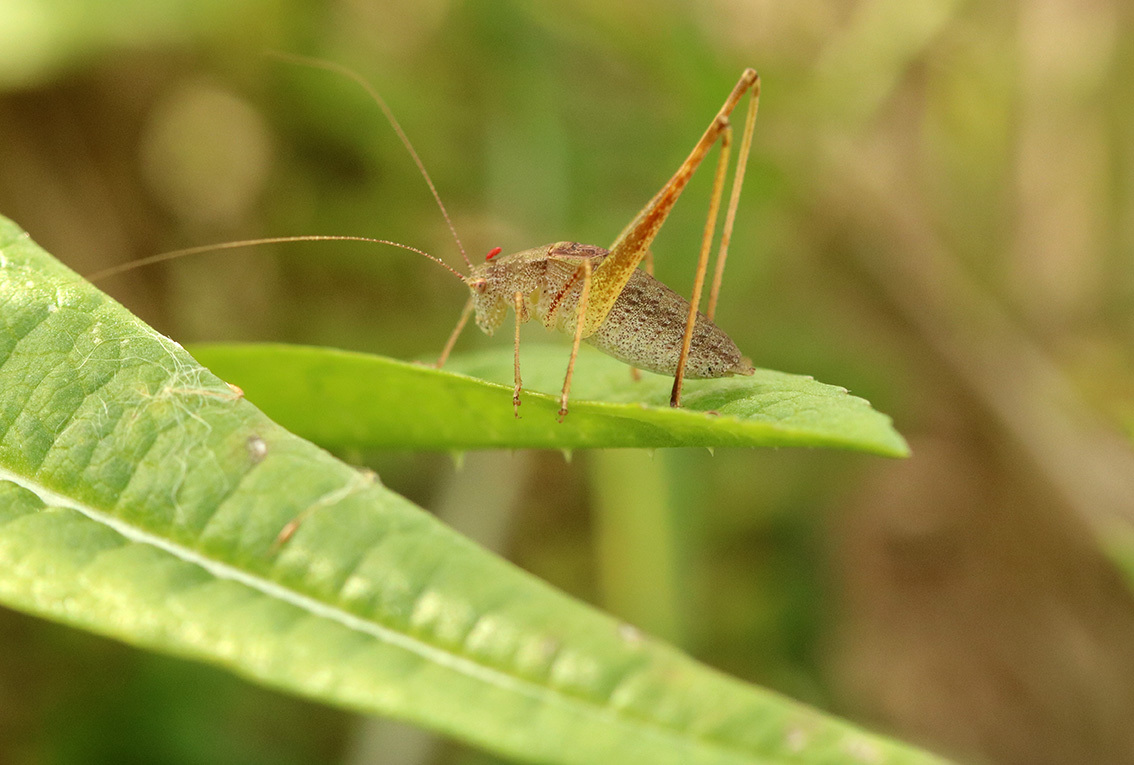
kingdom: Animalia
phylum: Arthropoda
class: Insecta
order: Orthoptera
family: Tettigoniidae
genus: Anisophya
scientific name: Anisophya
